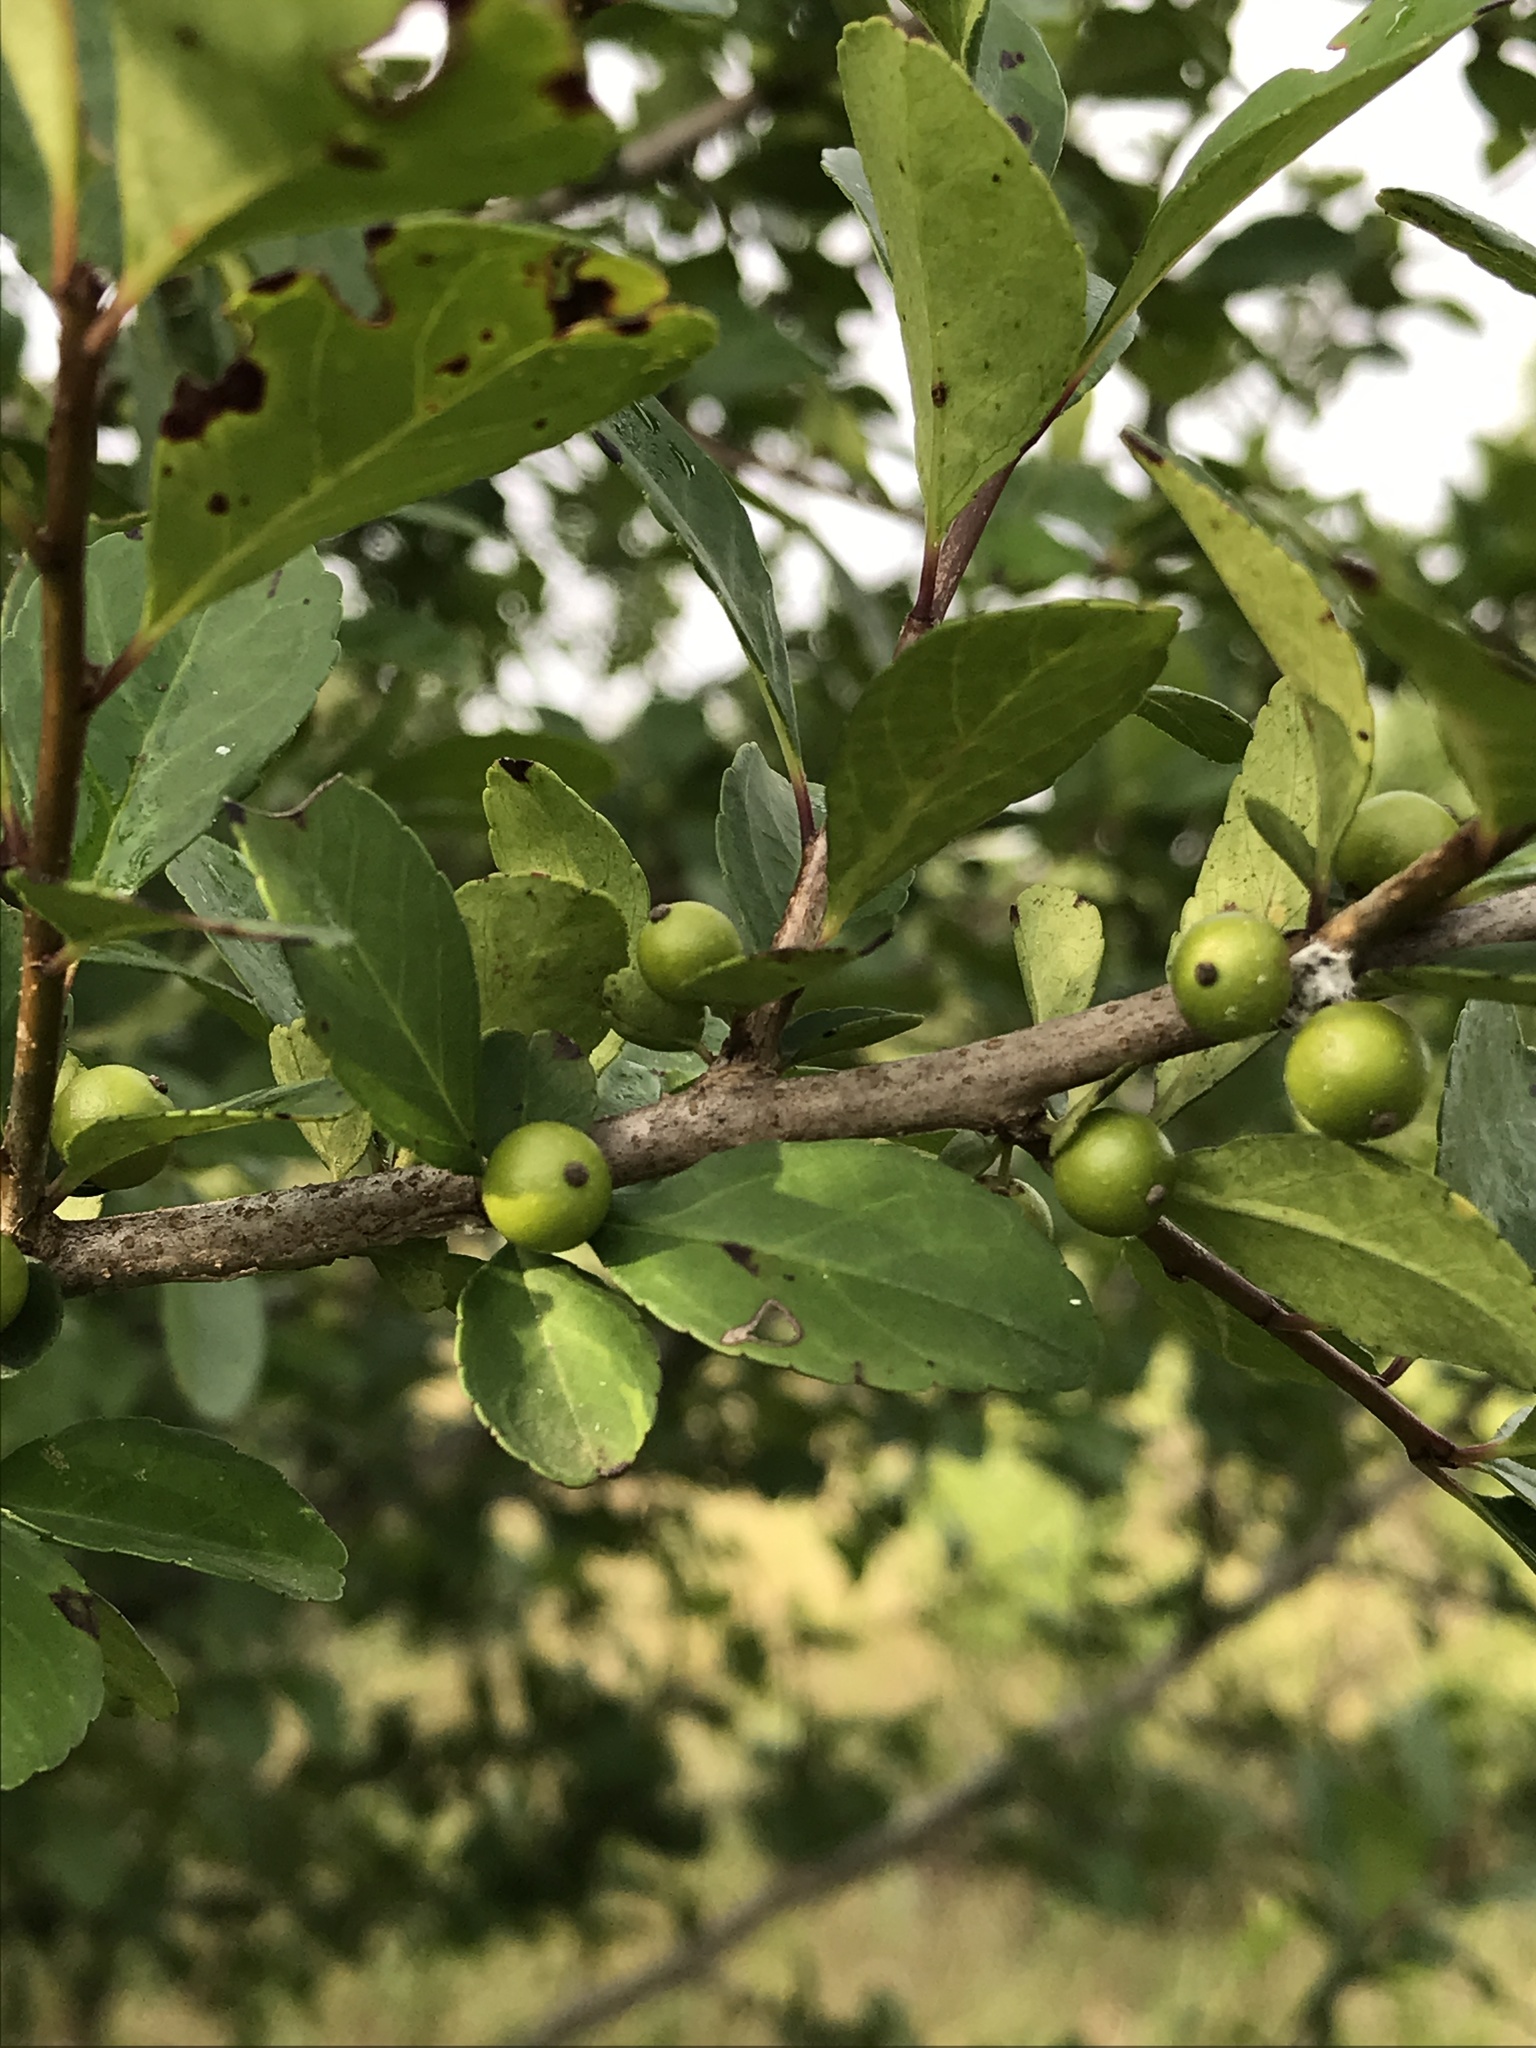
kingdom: Plantae
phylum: Tracheophyta
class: Magnoliopsida
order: Aquifoliales
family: Aquifoliaceae
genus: Ilex
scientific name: Ilex decidua
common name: Possum-haw
